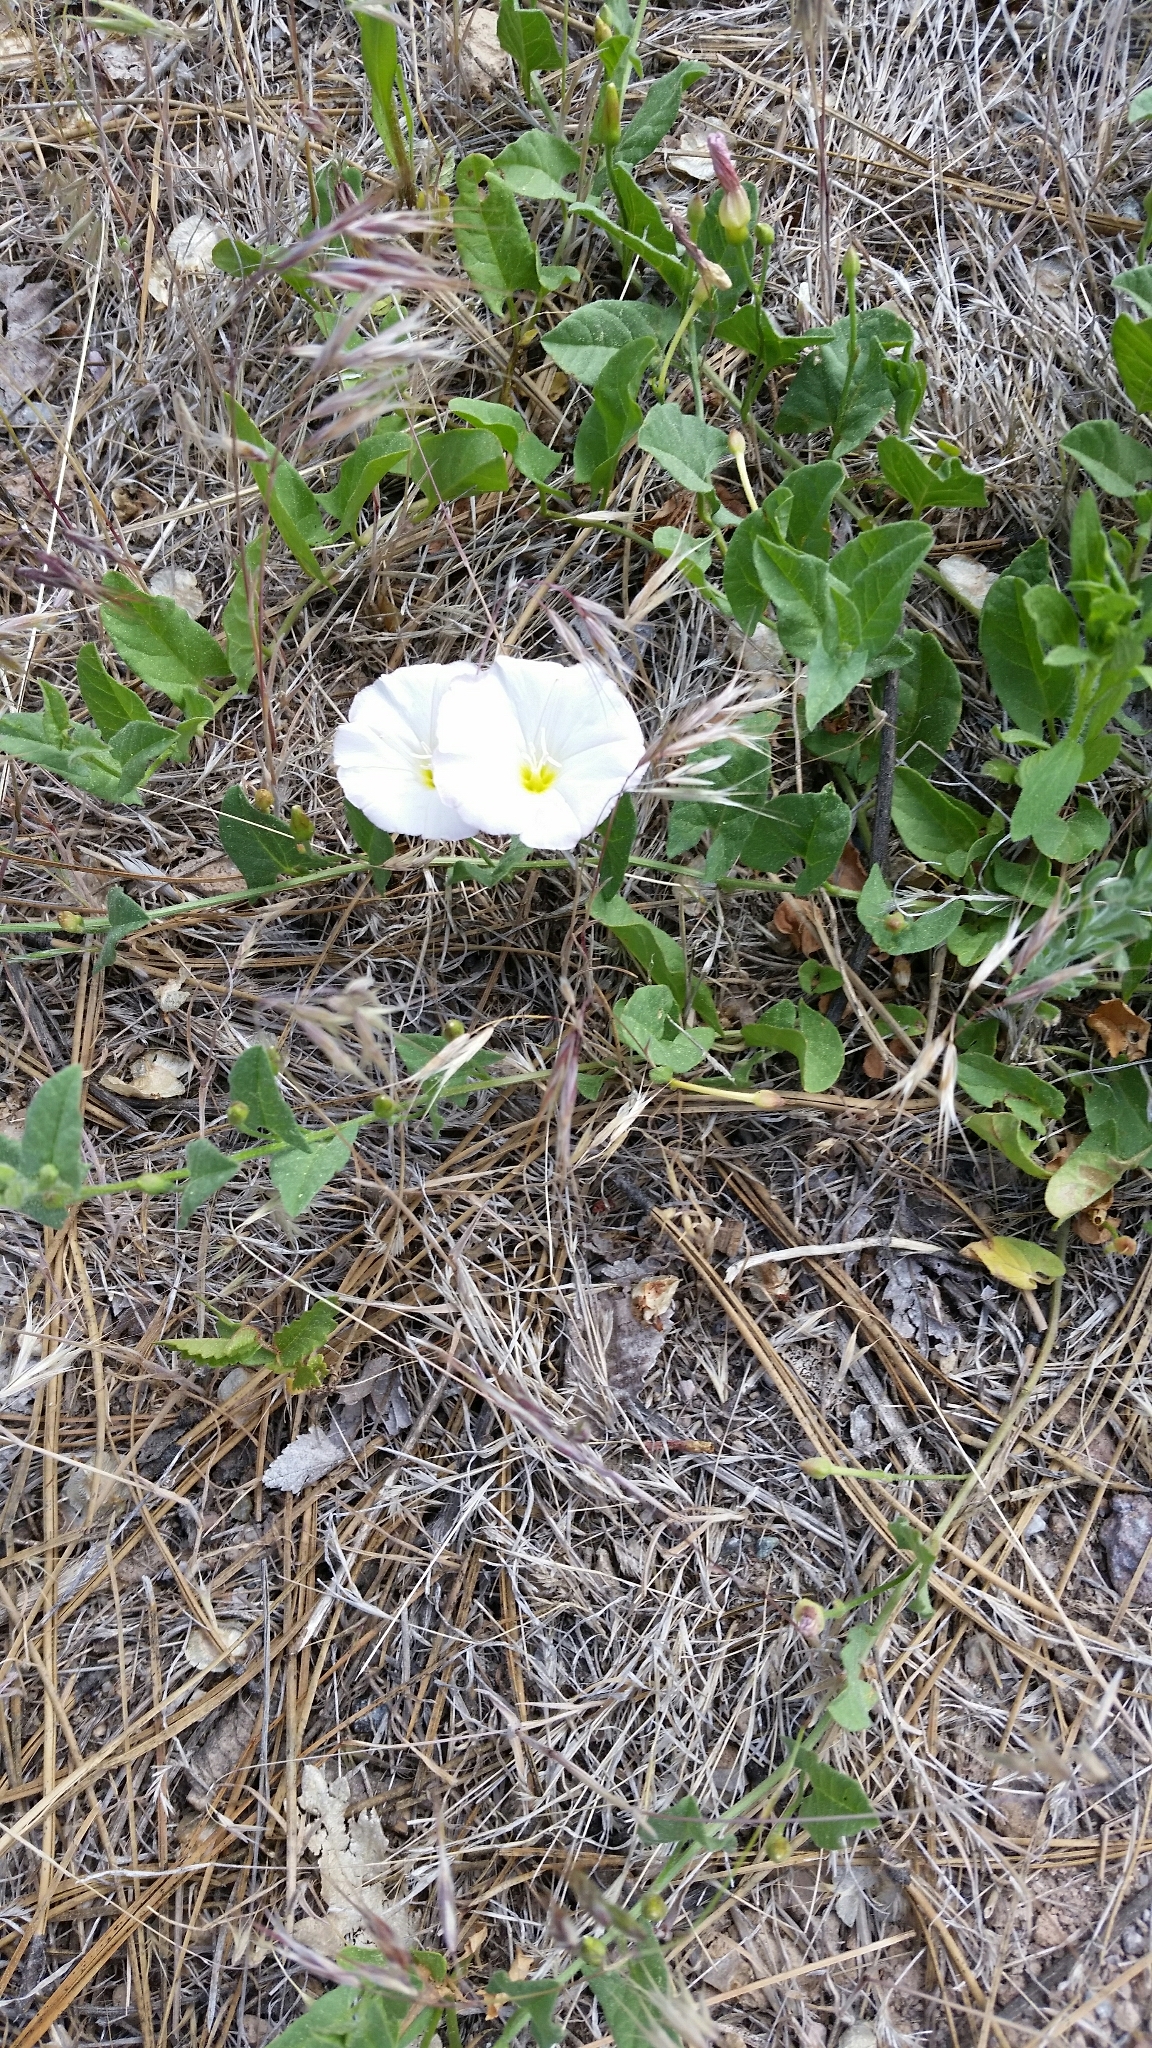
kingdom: Plantae
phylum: Tracheophyta
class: Magnoliopsida
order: Solanales
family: Convolvulaceae
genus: Convolvulus
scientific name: Convolvulus arvensis
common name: Field bindweed
